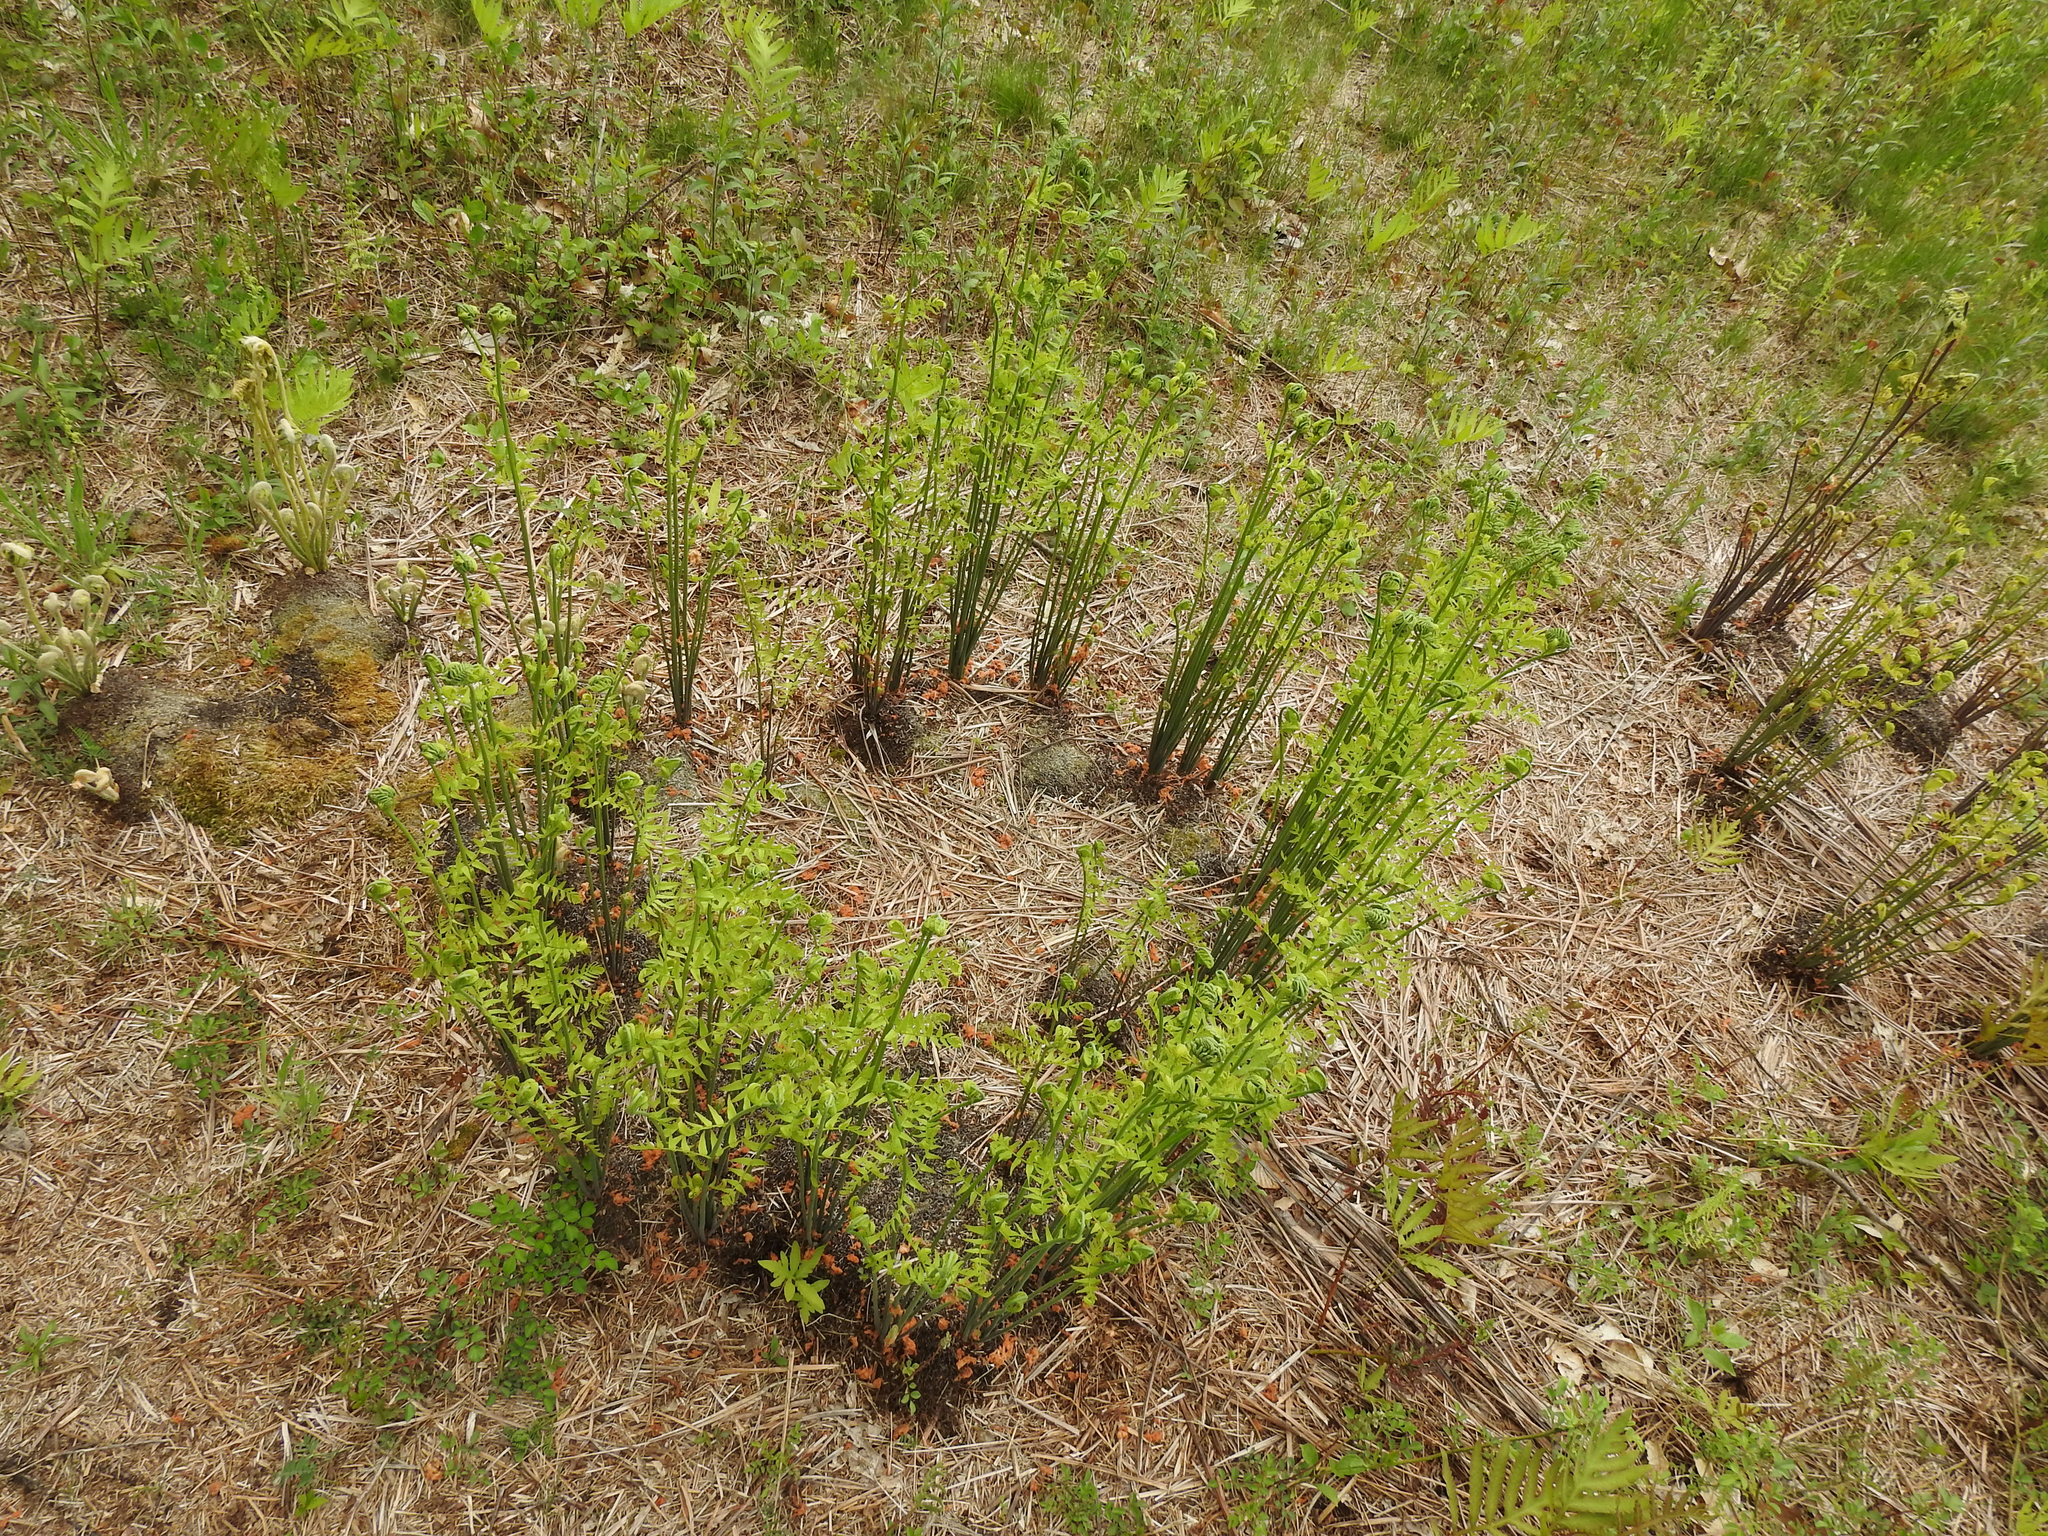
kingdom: Plantae
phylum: Tracheophyta
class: Polypodiopsida
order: Osmundales
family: Osmundaceae
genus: Osmunda
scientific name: Osmunda spectabilis
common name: American royal fern
